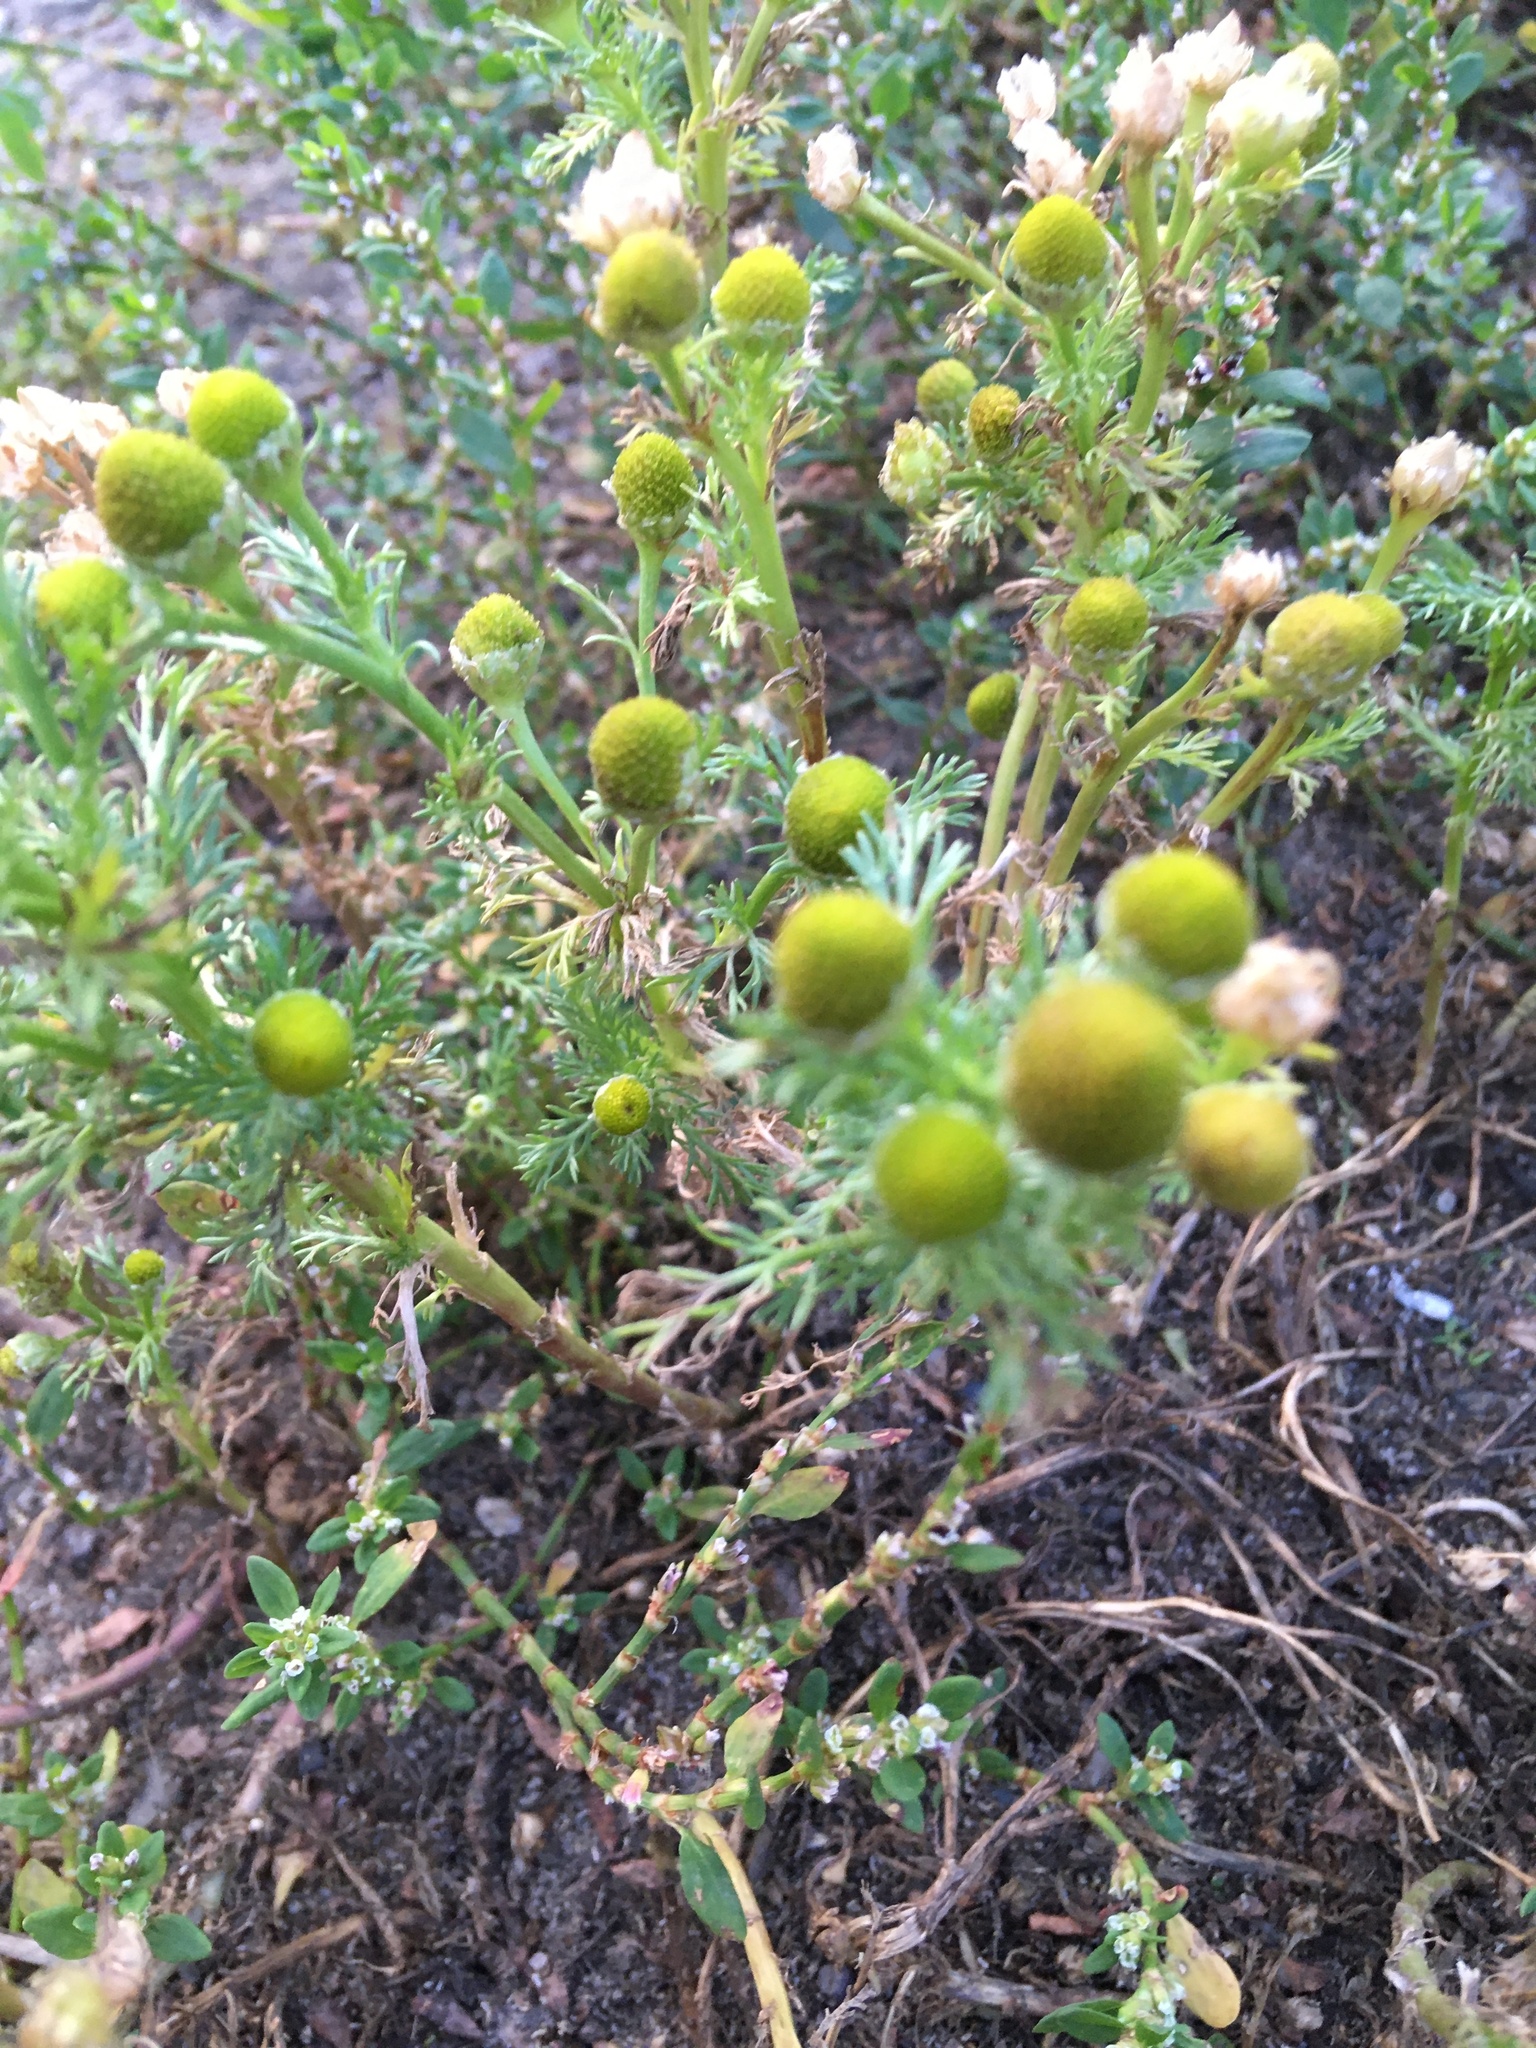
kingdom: Plantae
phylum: Tracheophyta
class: Magnoliopsida
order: Asterales
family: Asteraceae
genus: Matricaria
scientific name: Matricaria discoidea
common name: Disc mayweed
